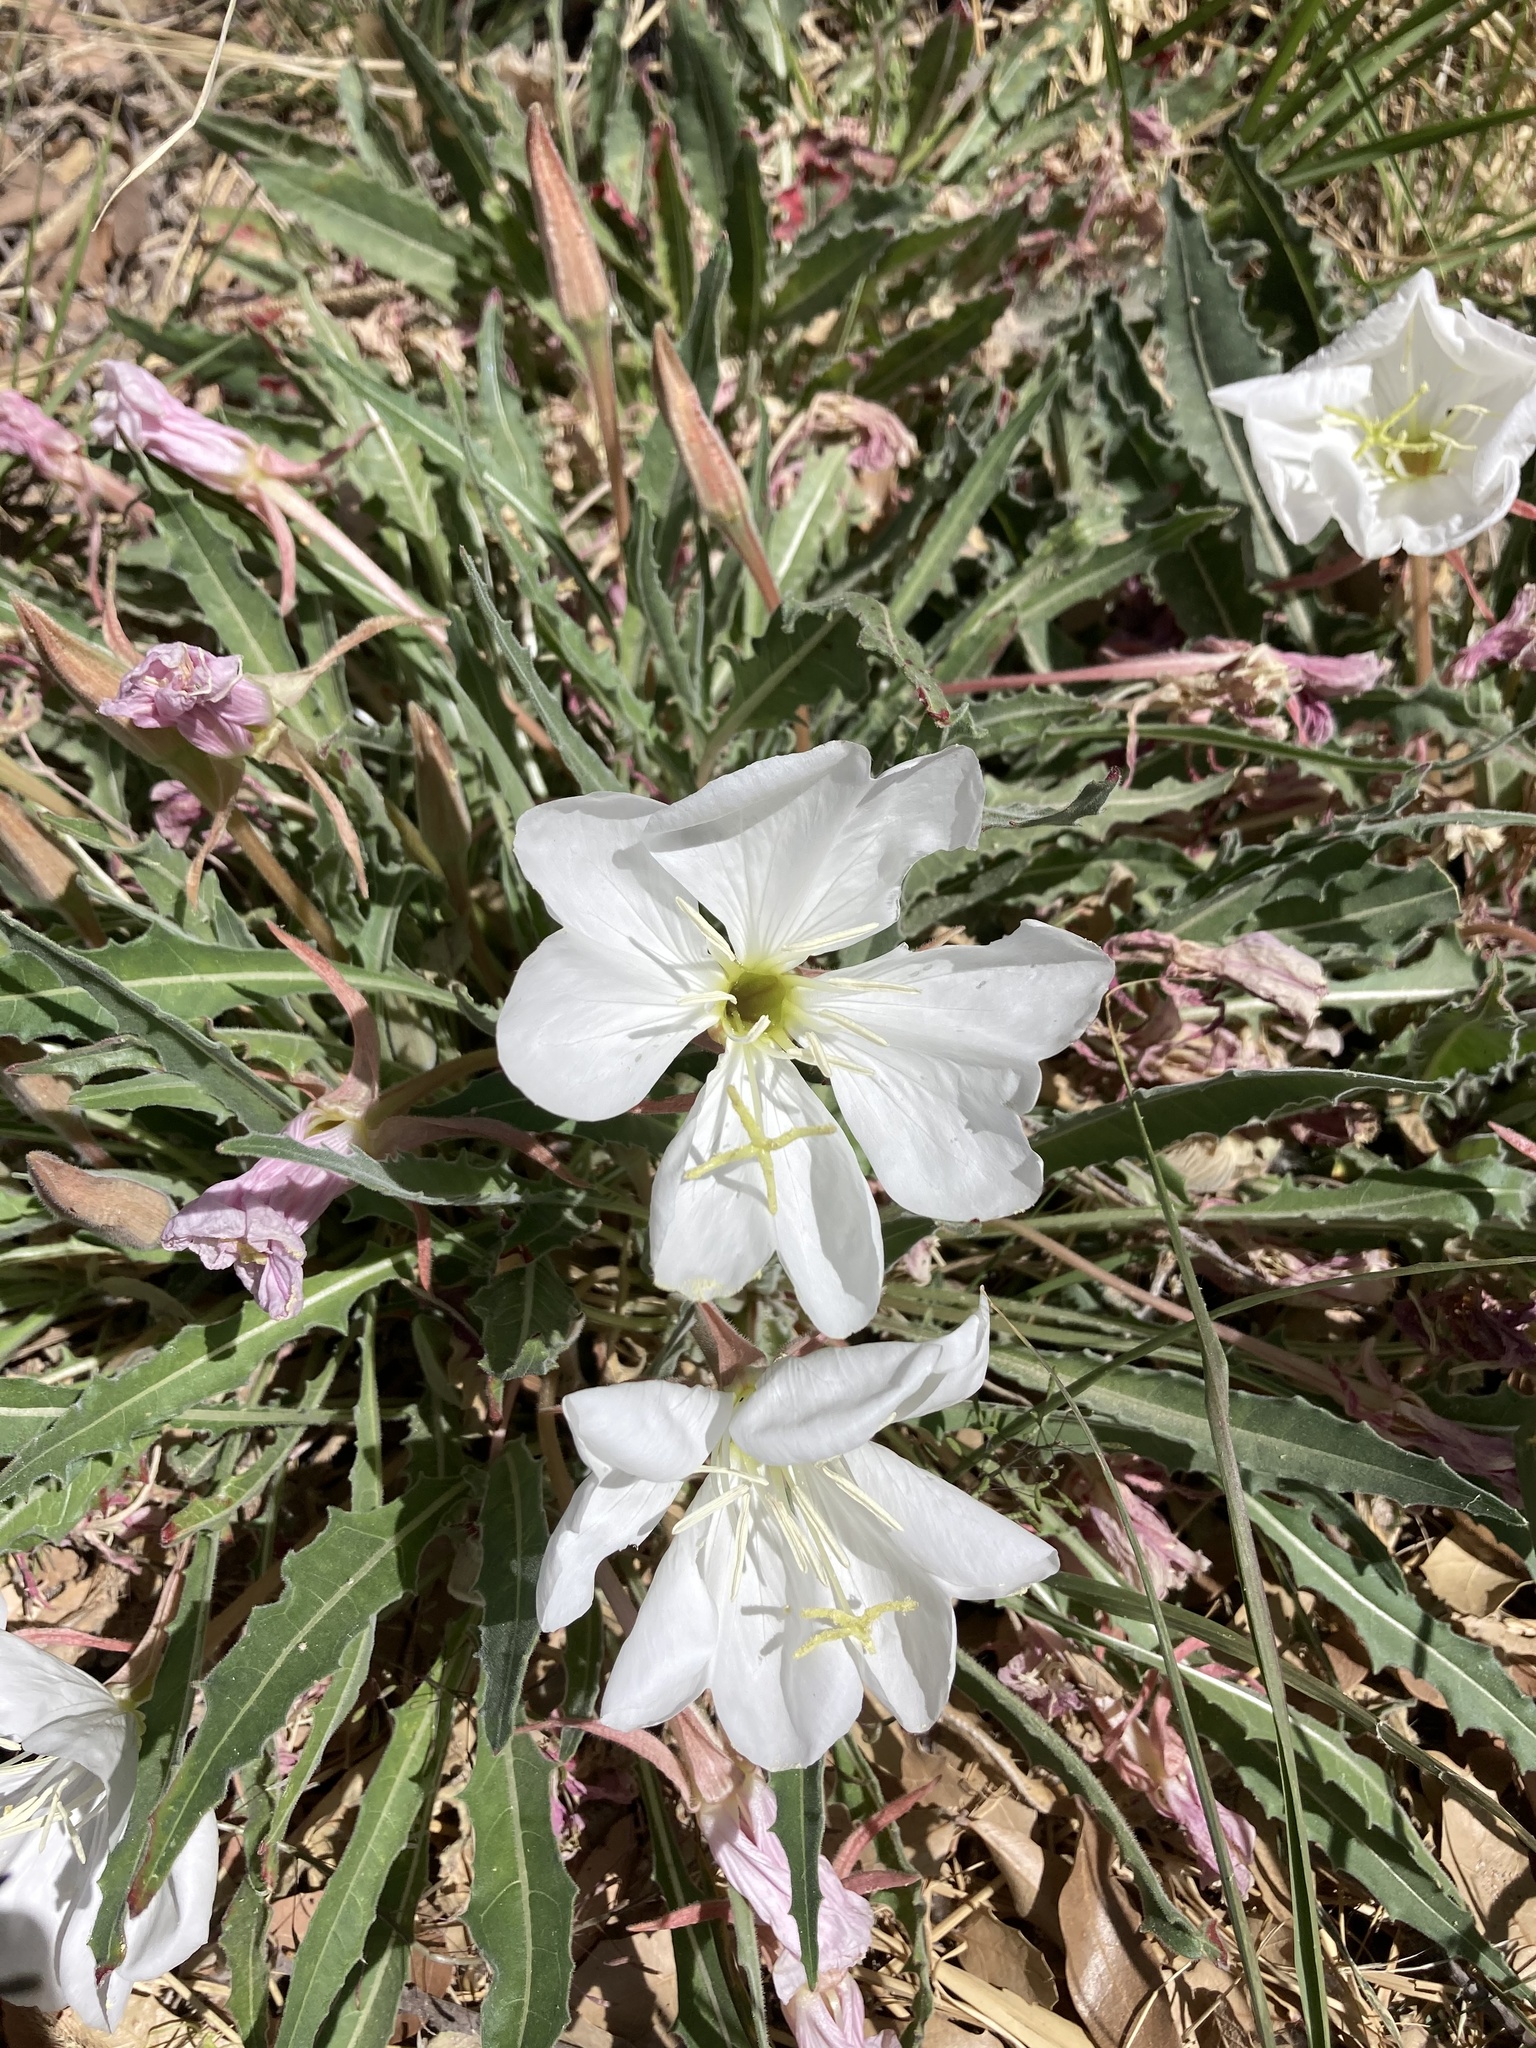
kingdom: Plantae
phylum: Tracheophyta
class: Magnoliopsida
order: Myrtales
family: Onagraceae
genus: Oenothera
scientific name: Oenothera cespitosa
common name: Tufted evening-primrose
